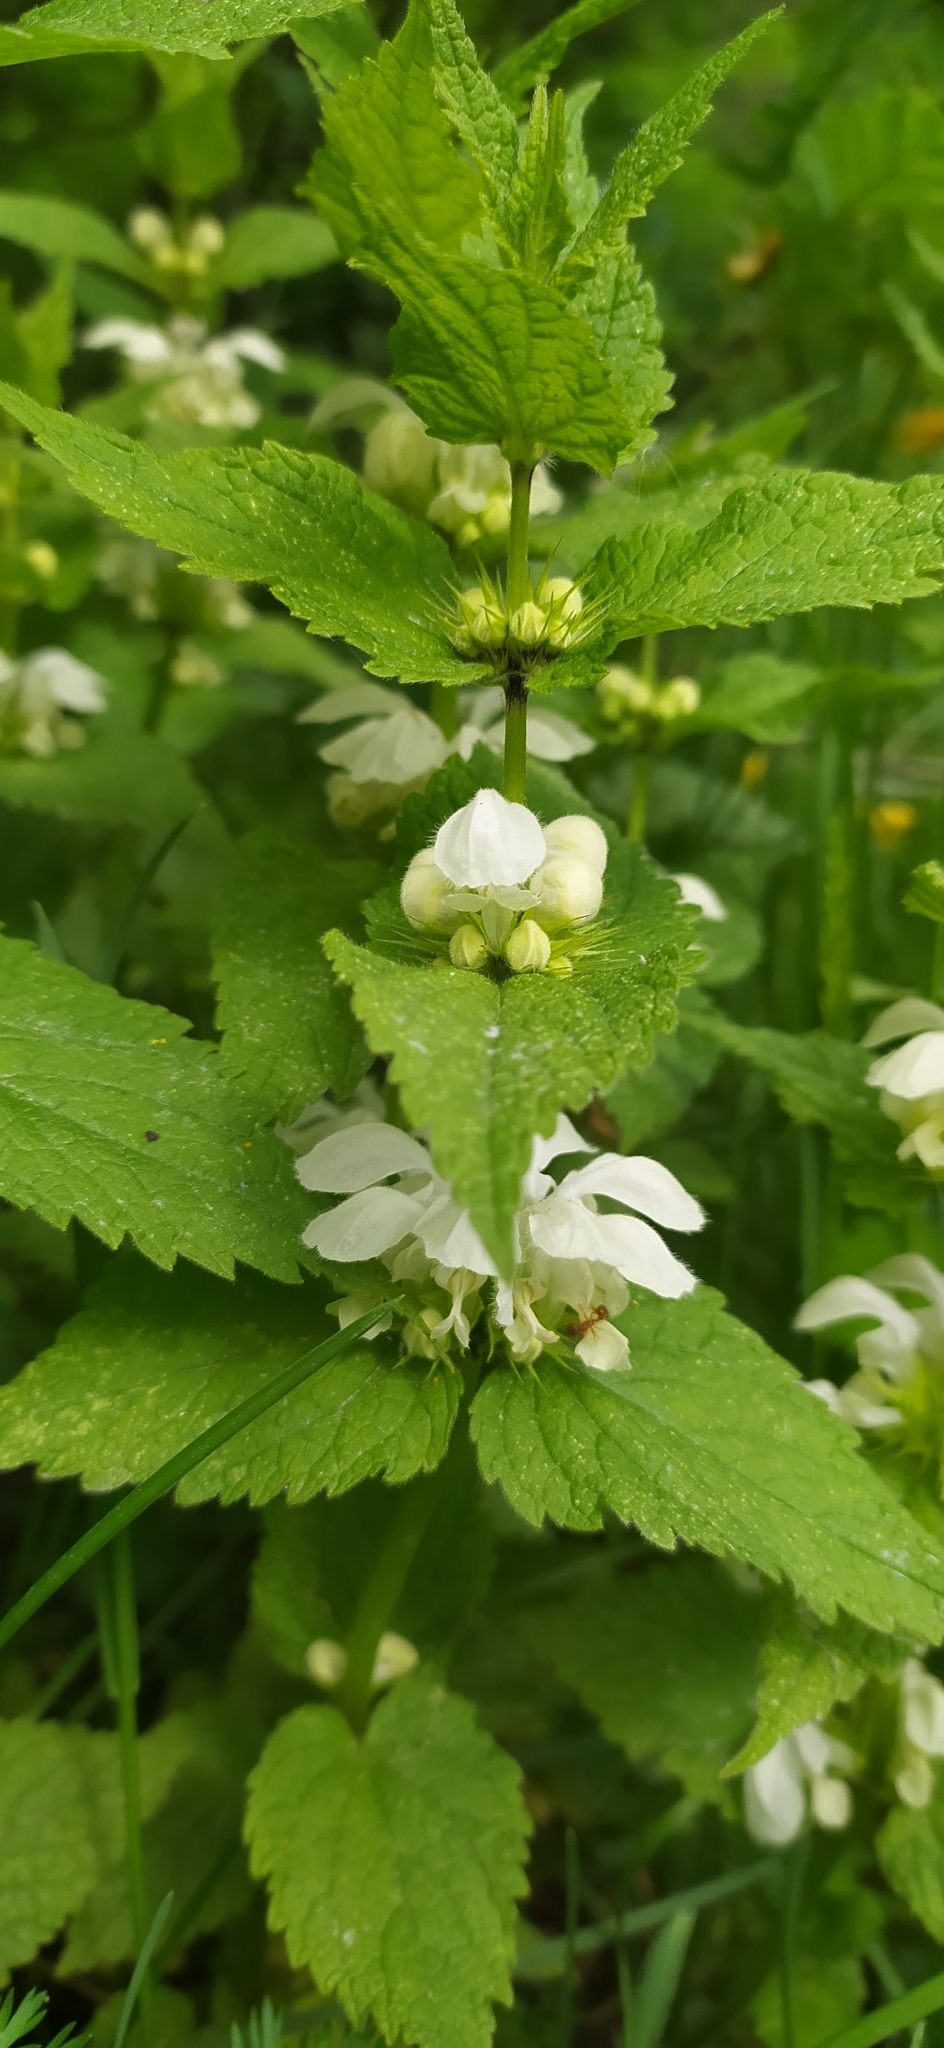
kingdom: Plantae
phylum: Tracheophyta
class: Magnoliopsida
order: Lamiales
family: Lamiaceae
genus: Lamium
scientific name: Lamium album
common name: White dead-nettle
